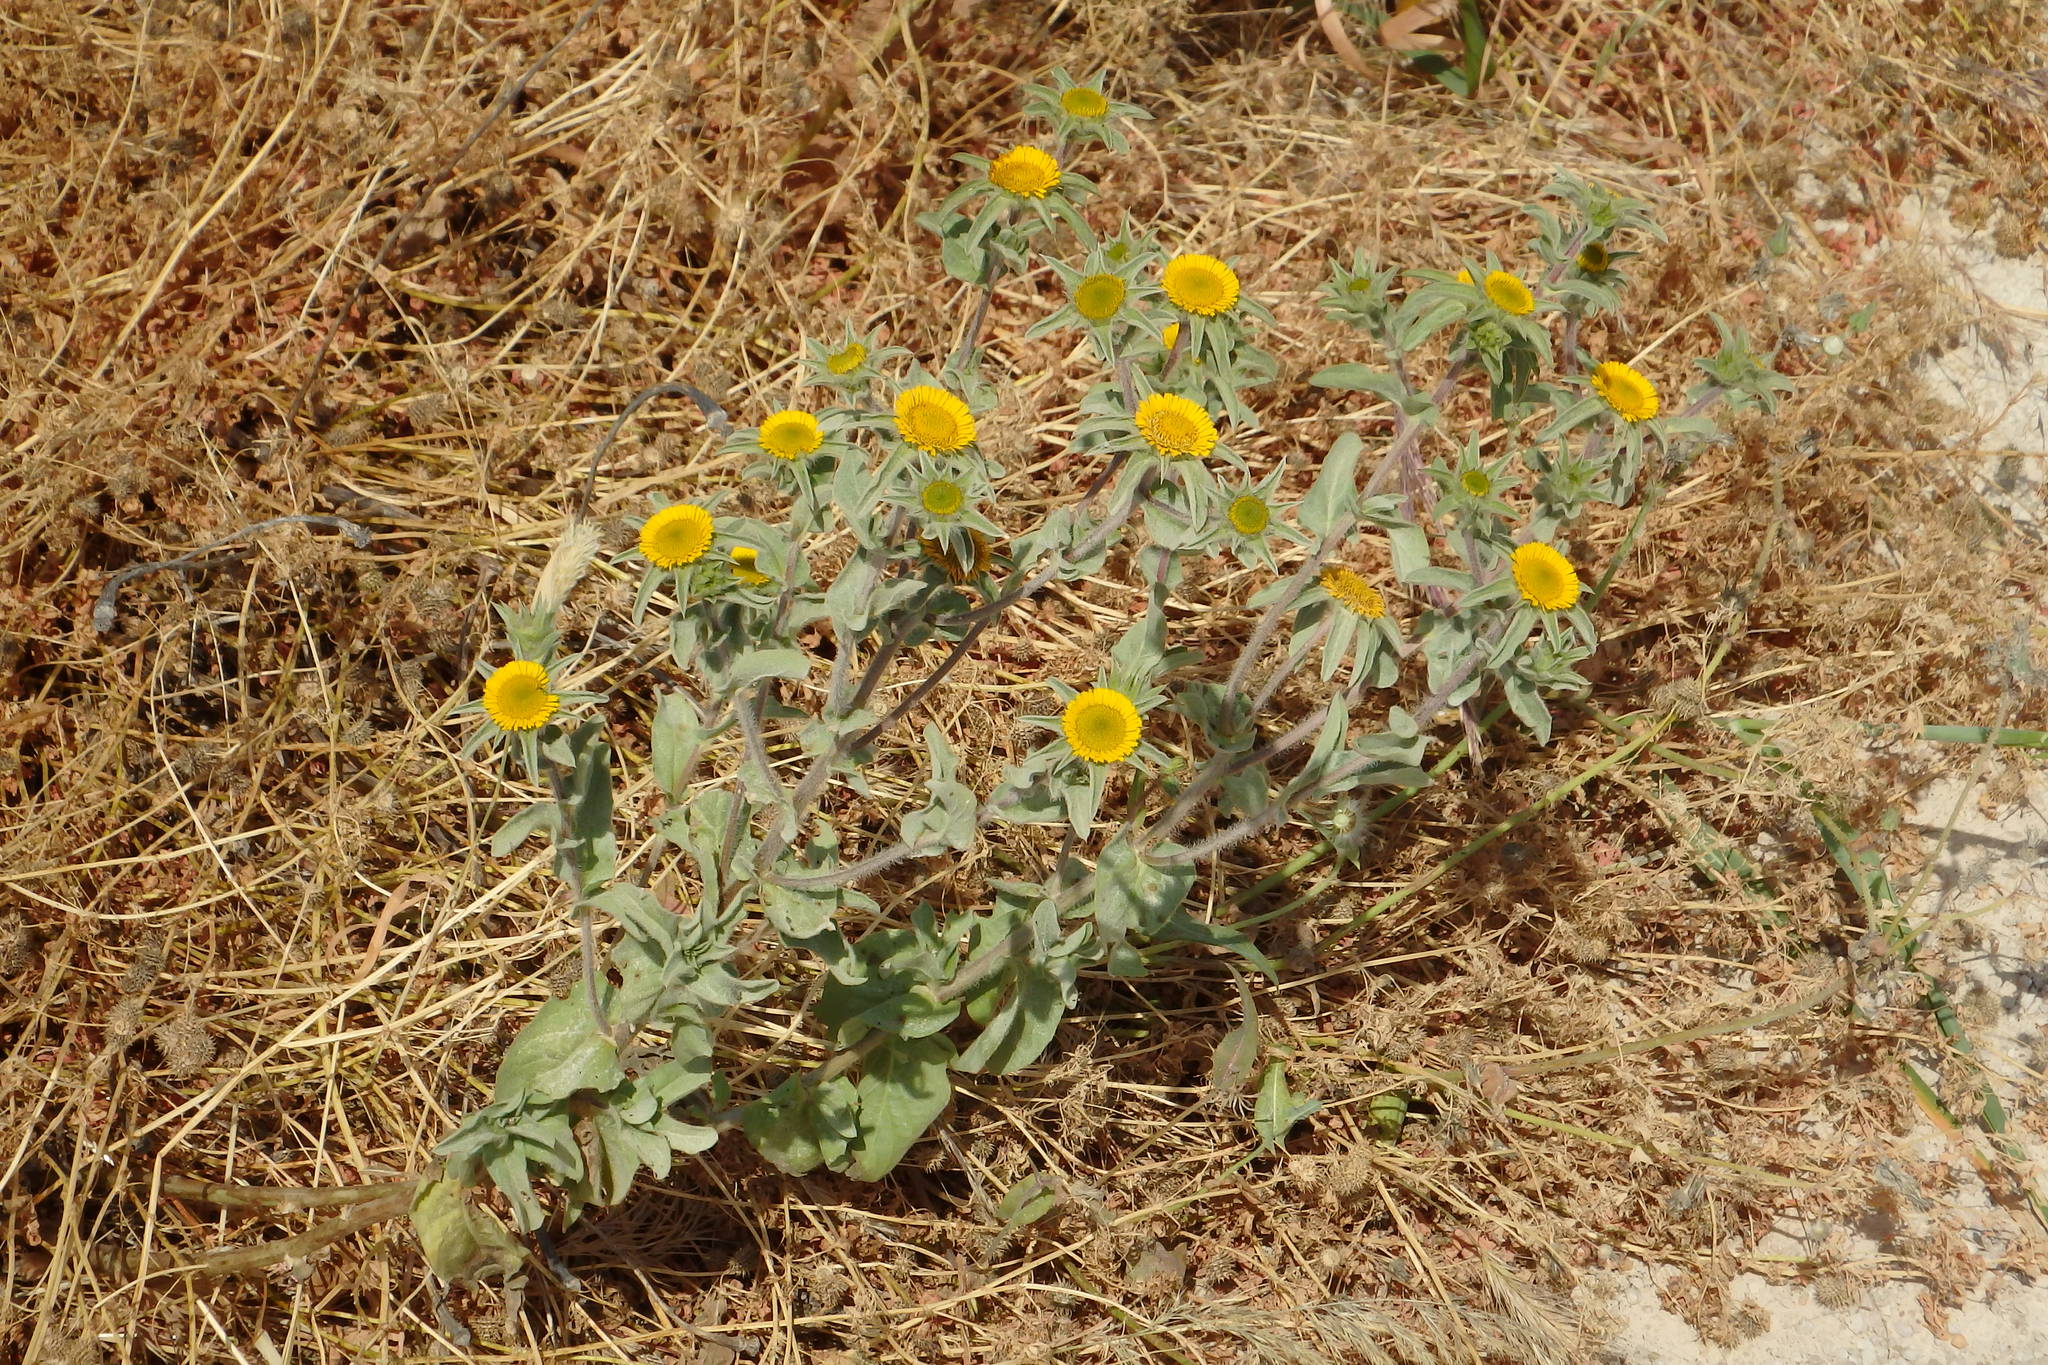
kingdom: Plantae
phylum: Tracheophyta
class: Magnoliopsida
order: Asterales
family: Asteraceae
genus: Pallenis
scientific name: Pallenis spinosa
